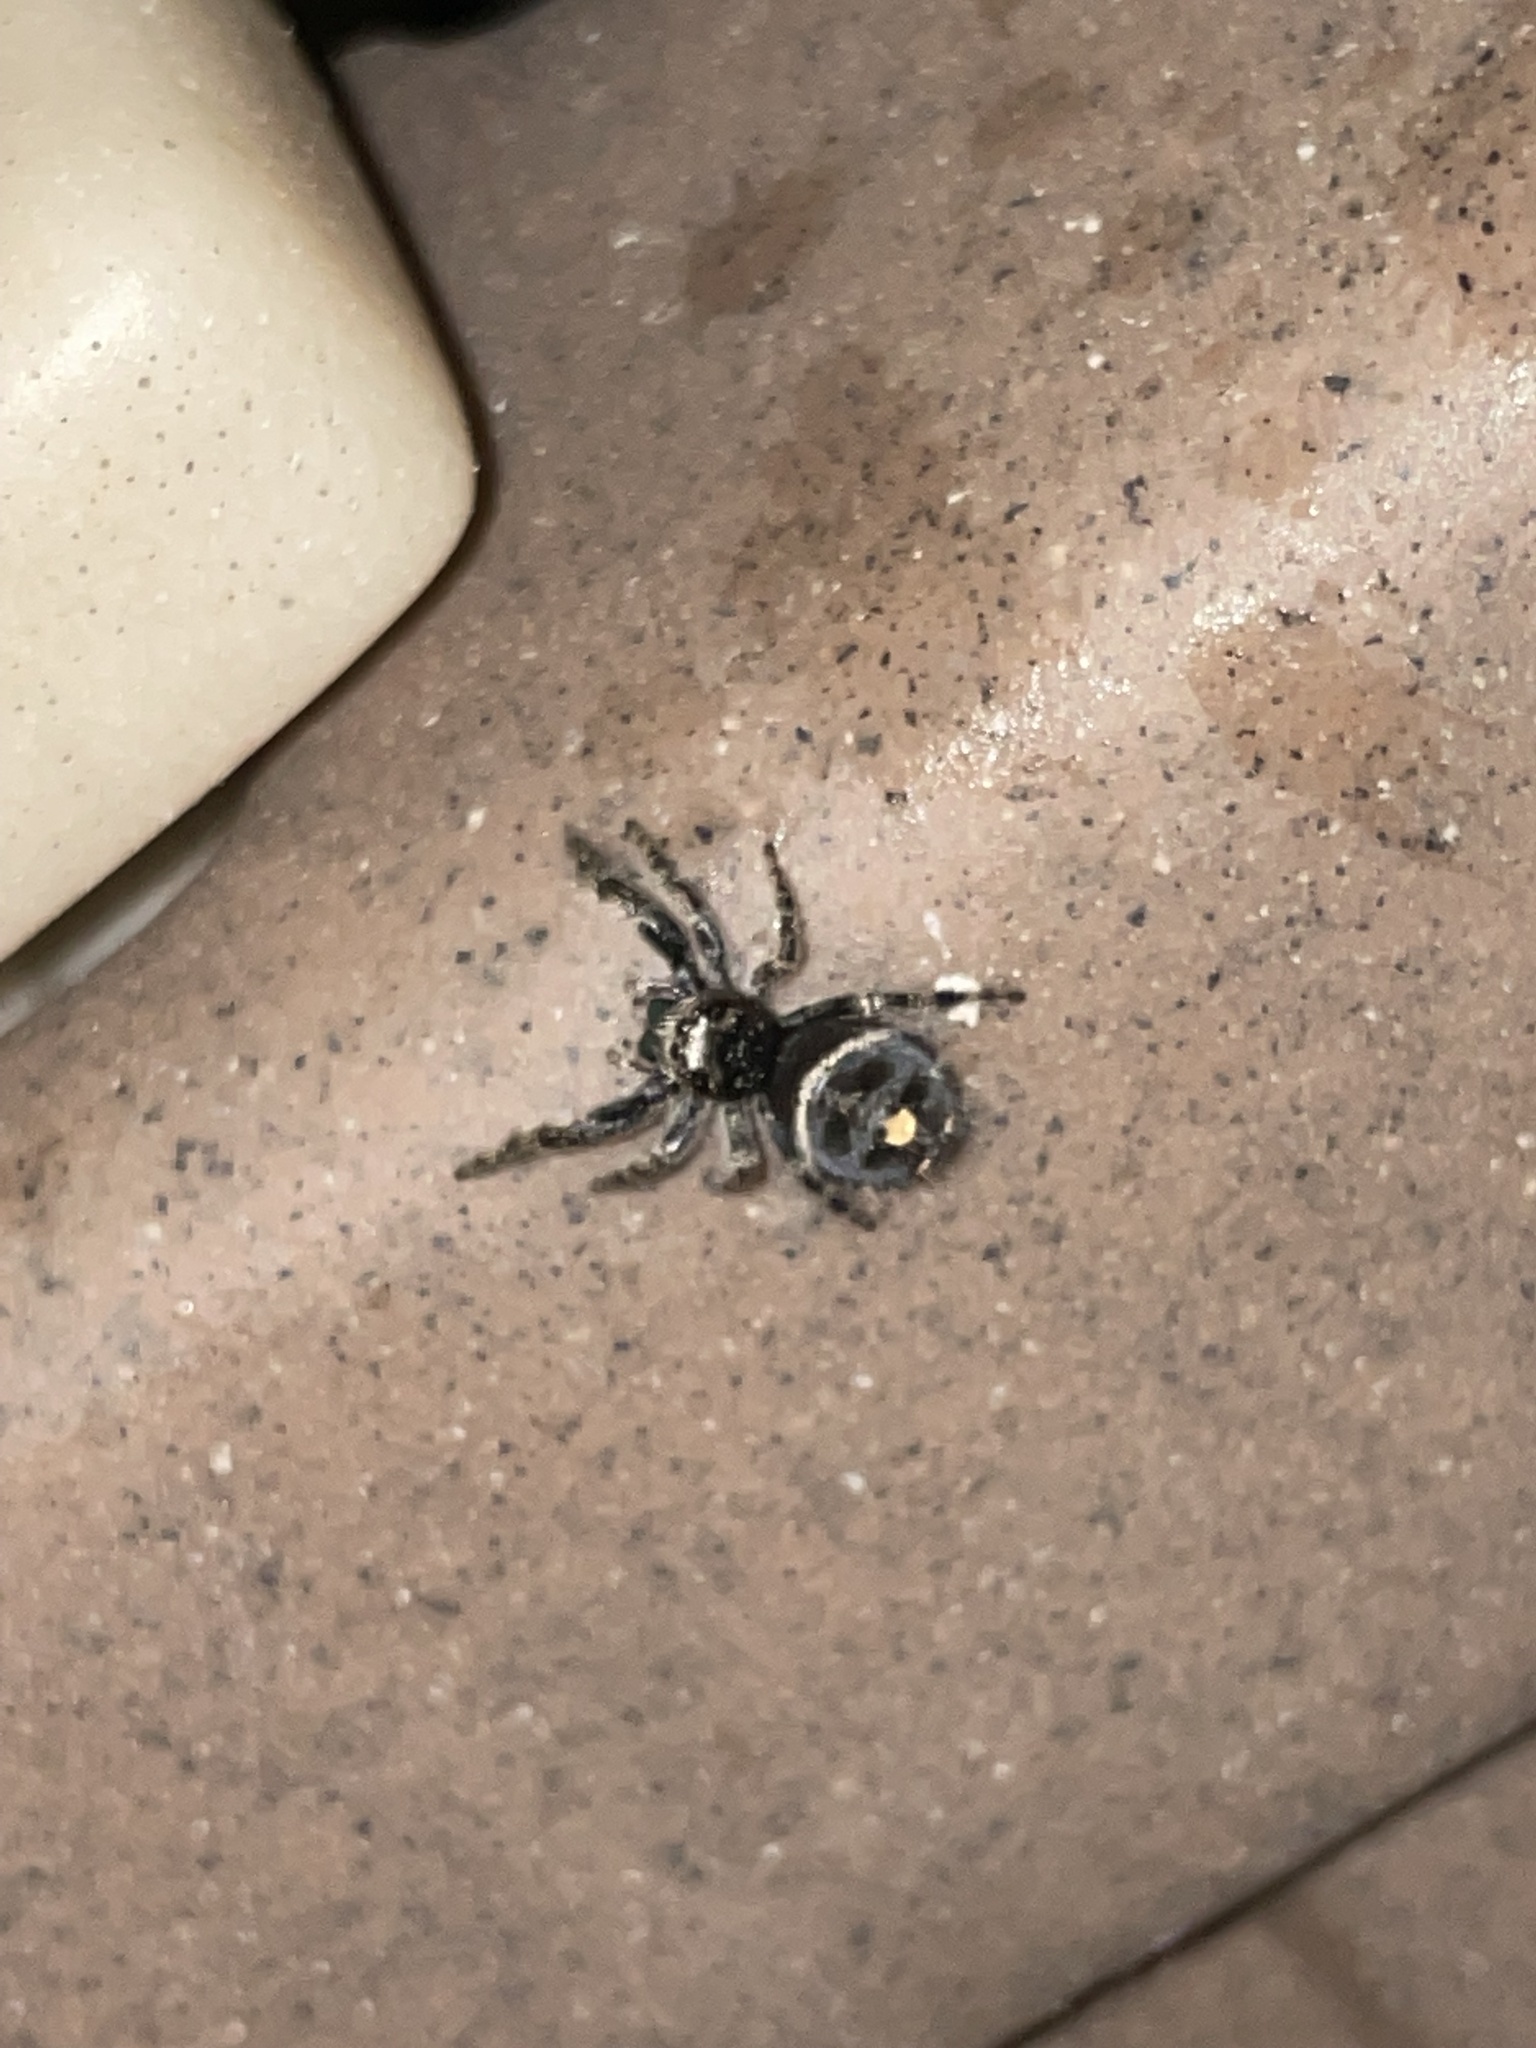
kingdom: Animalia
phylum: Arthropoda
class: Arachnida
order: Araneae
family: Salticidae
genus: Phidippus
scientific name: Phidippus audax
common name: Bold jumper
